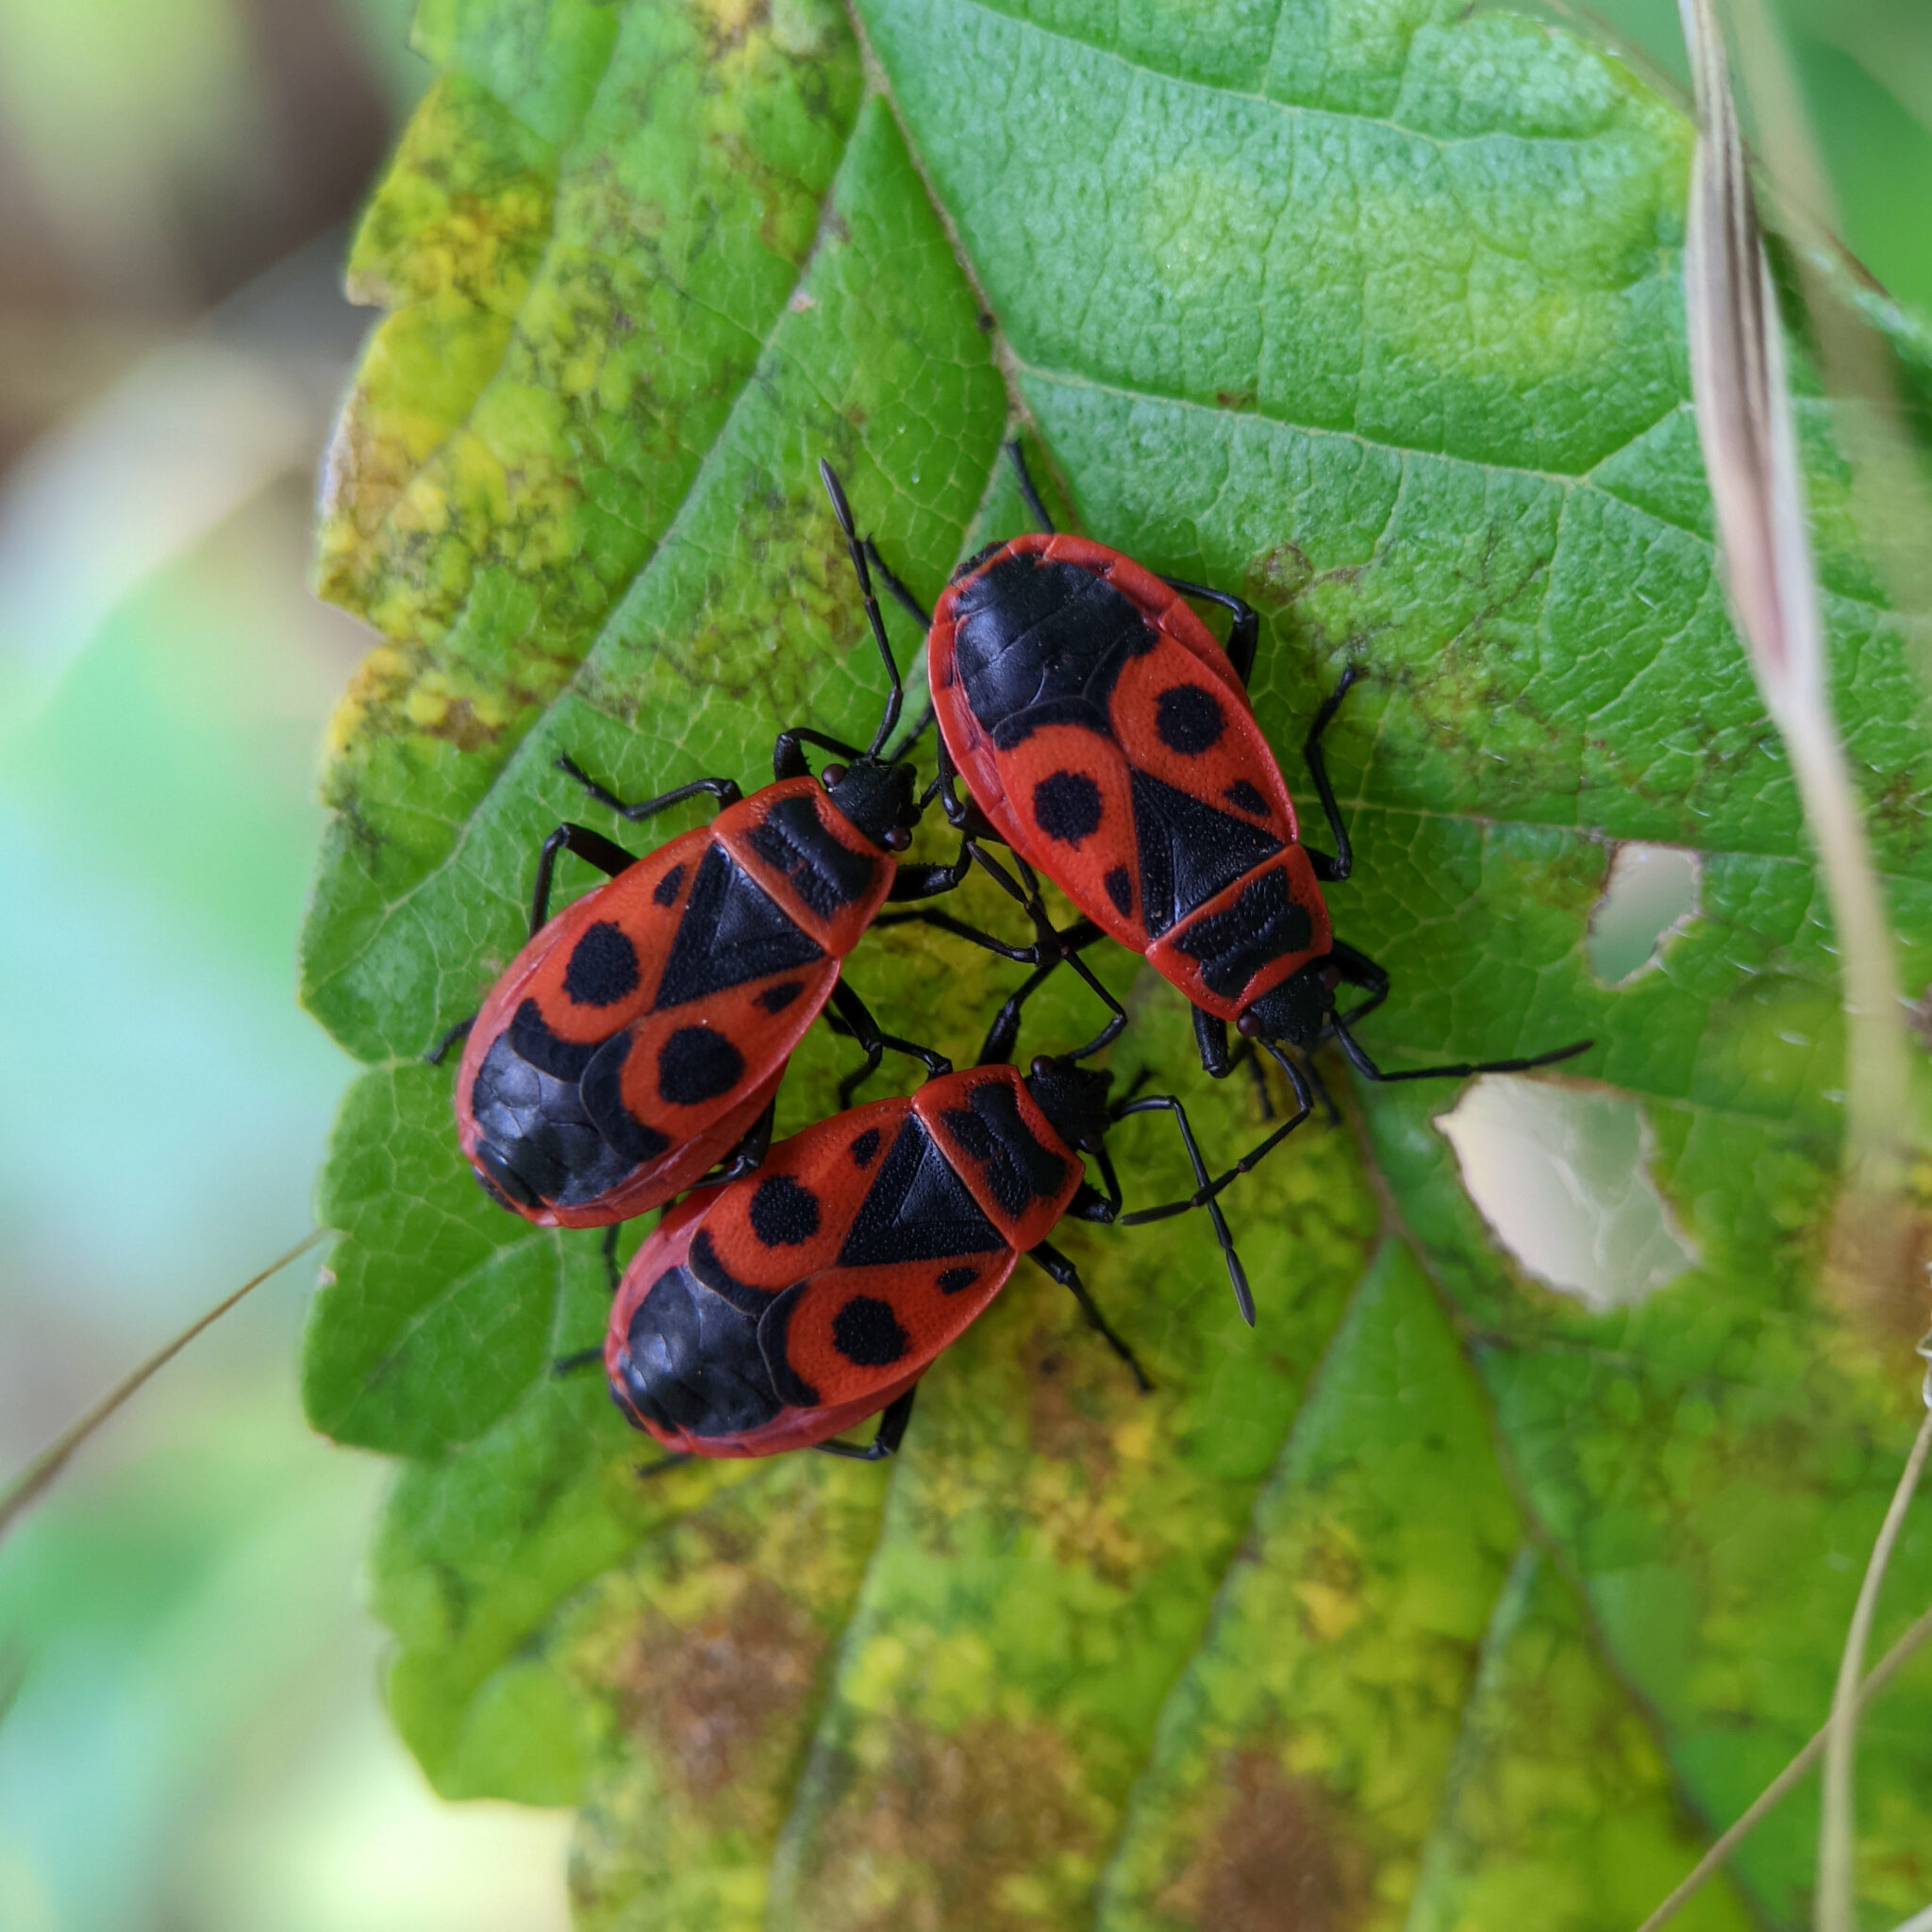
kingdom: Animalia
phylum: Arthropoda
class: Insecta
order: Hemiptera
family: Pyrrhocoridae
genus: Pyrrhocoris
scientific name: Pyrrhocoris apterus
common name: Firebug
